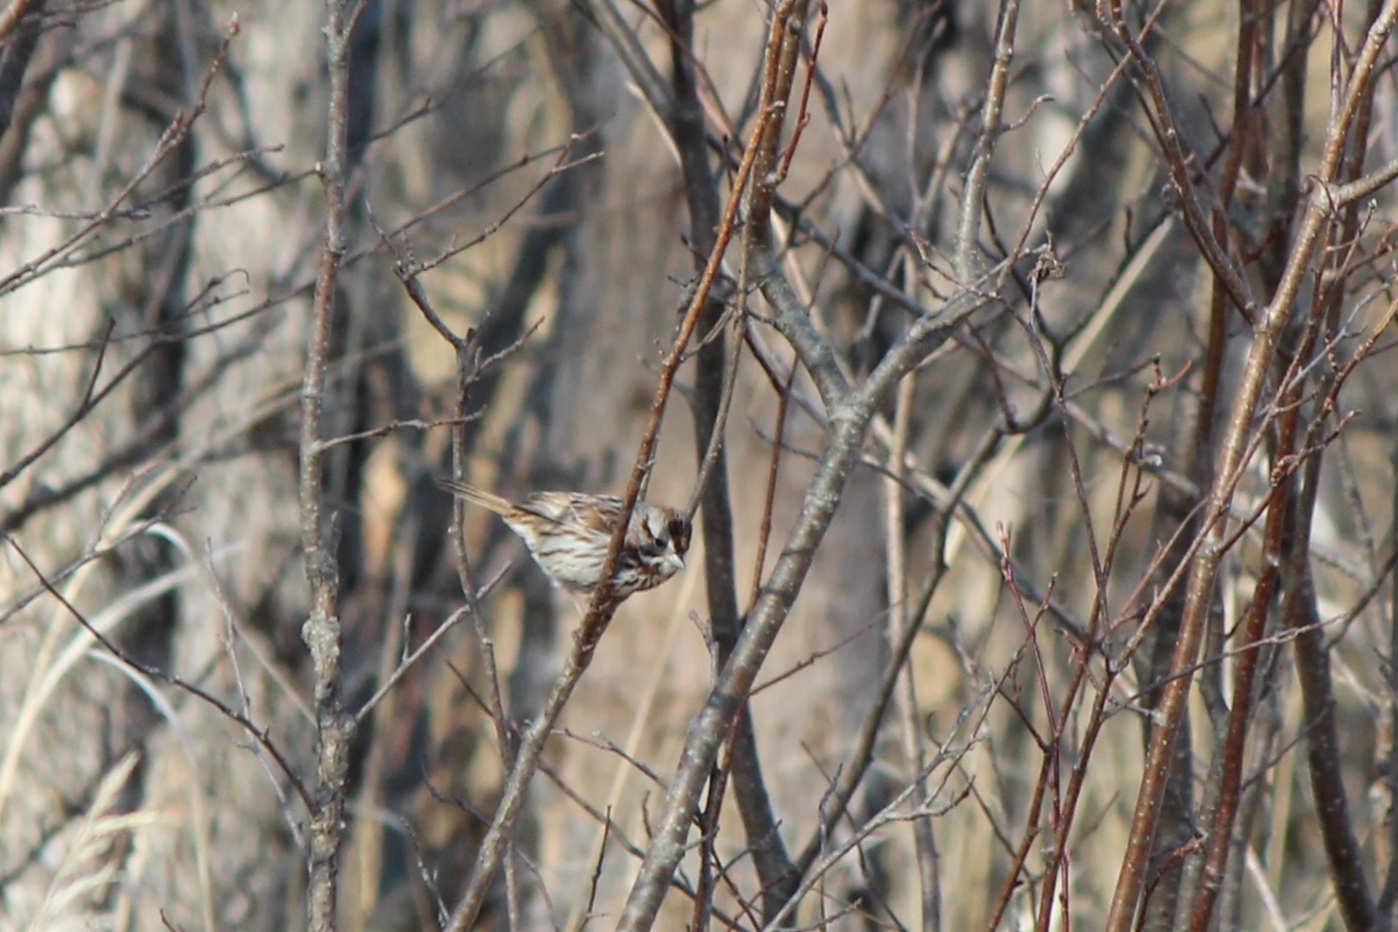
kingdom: Animalia
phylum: Chordata
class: Aves
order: Passeriformes
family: Passerellidae
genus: Melospiza
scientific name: Melospiza melodia
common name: Song sparrow
